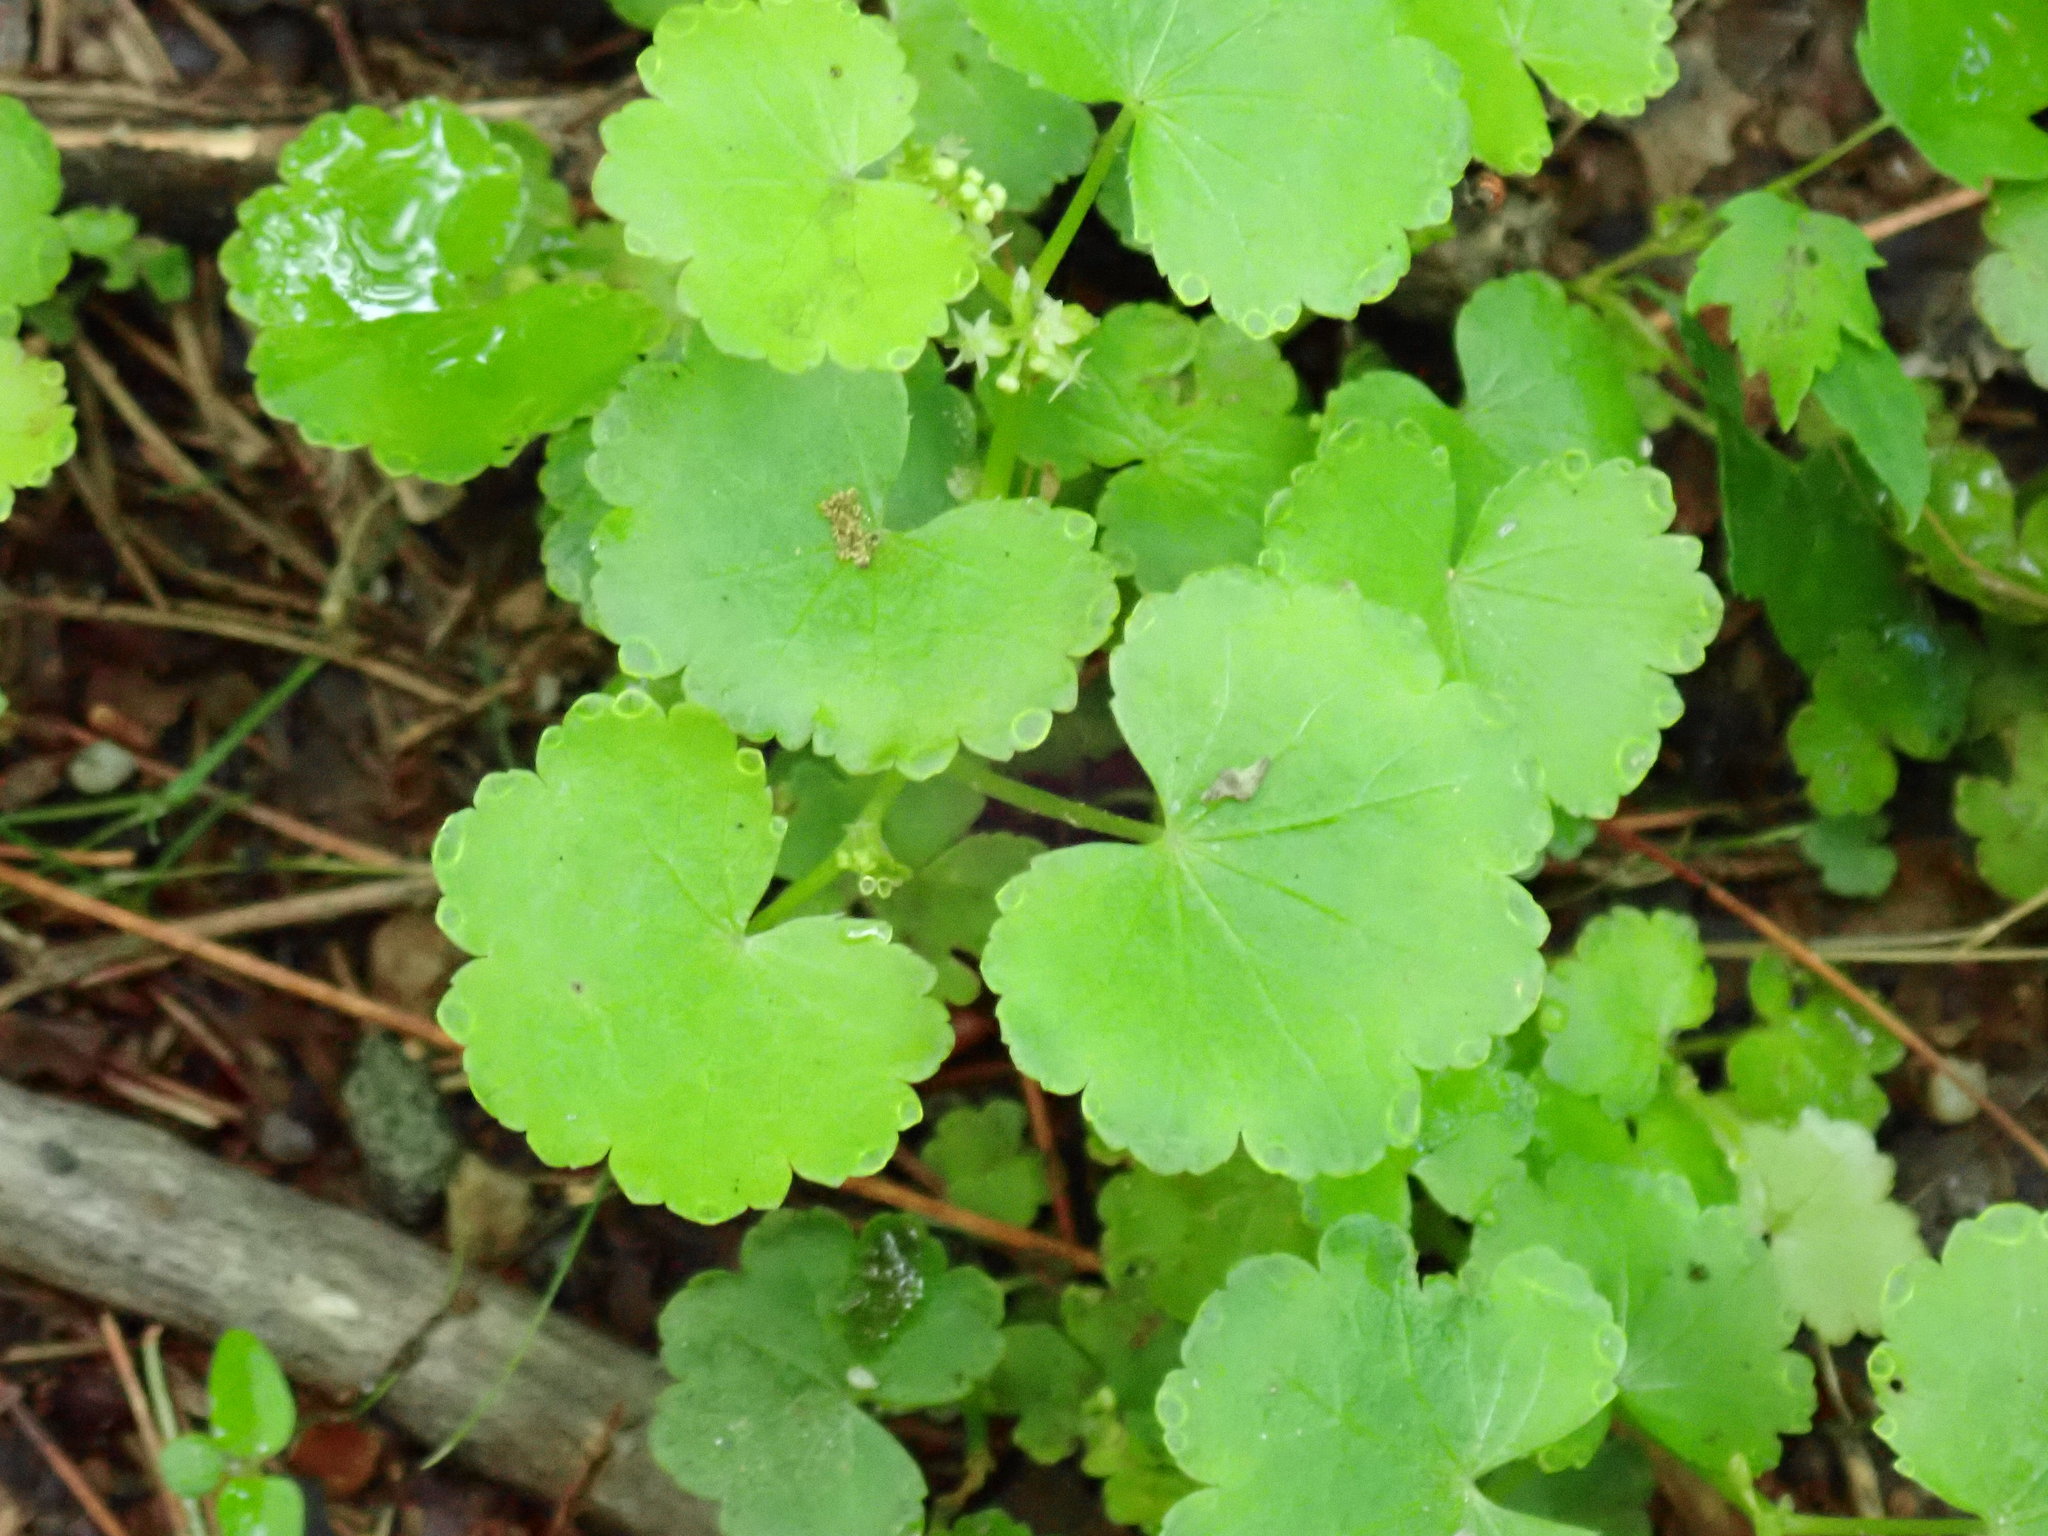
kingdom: Plantae
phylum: Tracheophyta
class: Magnoliopsida
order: Apiales
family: Araliaceae
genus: Hydrocotyle
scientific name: Hydrocotyle americana
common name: American water-pennywort
